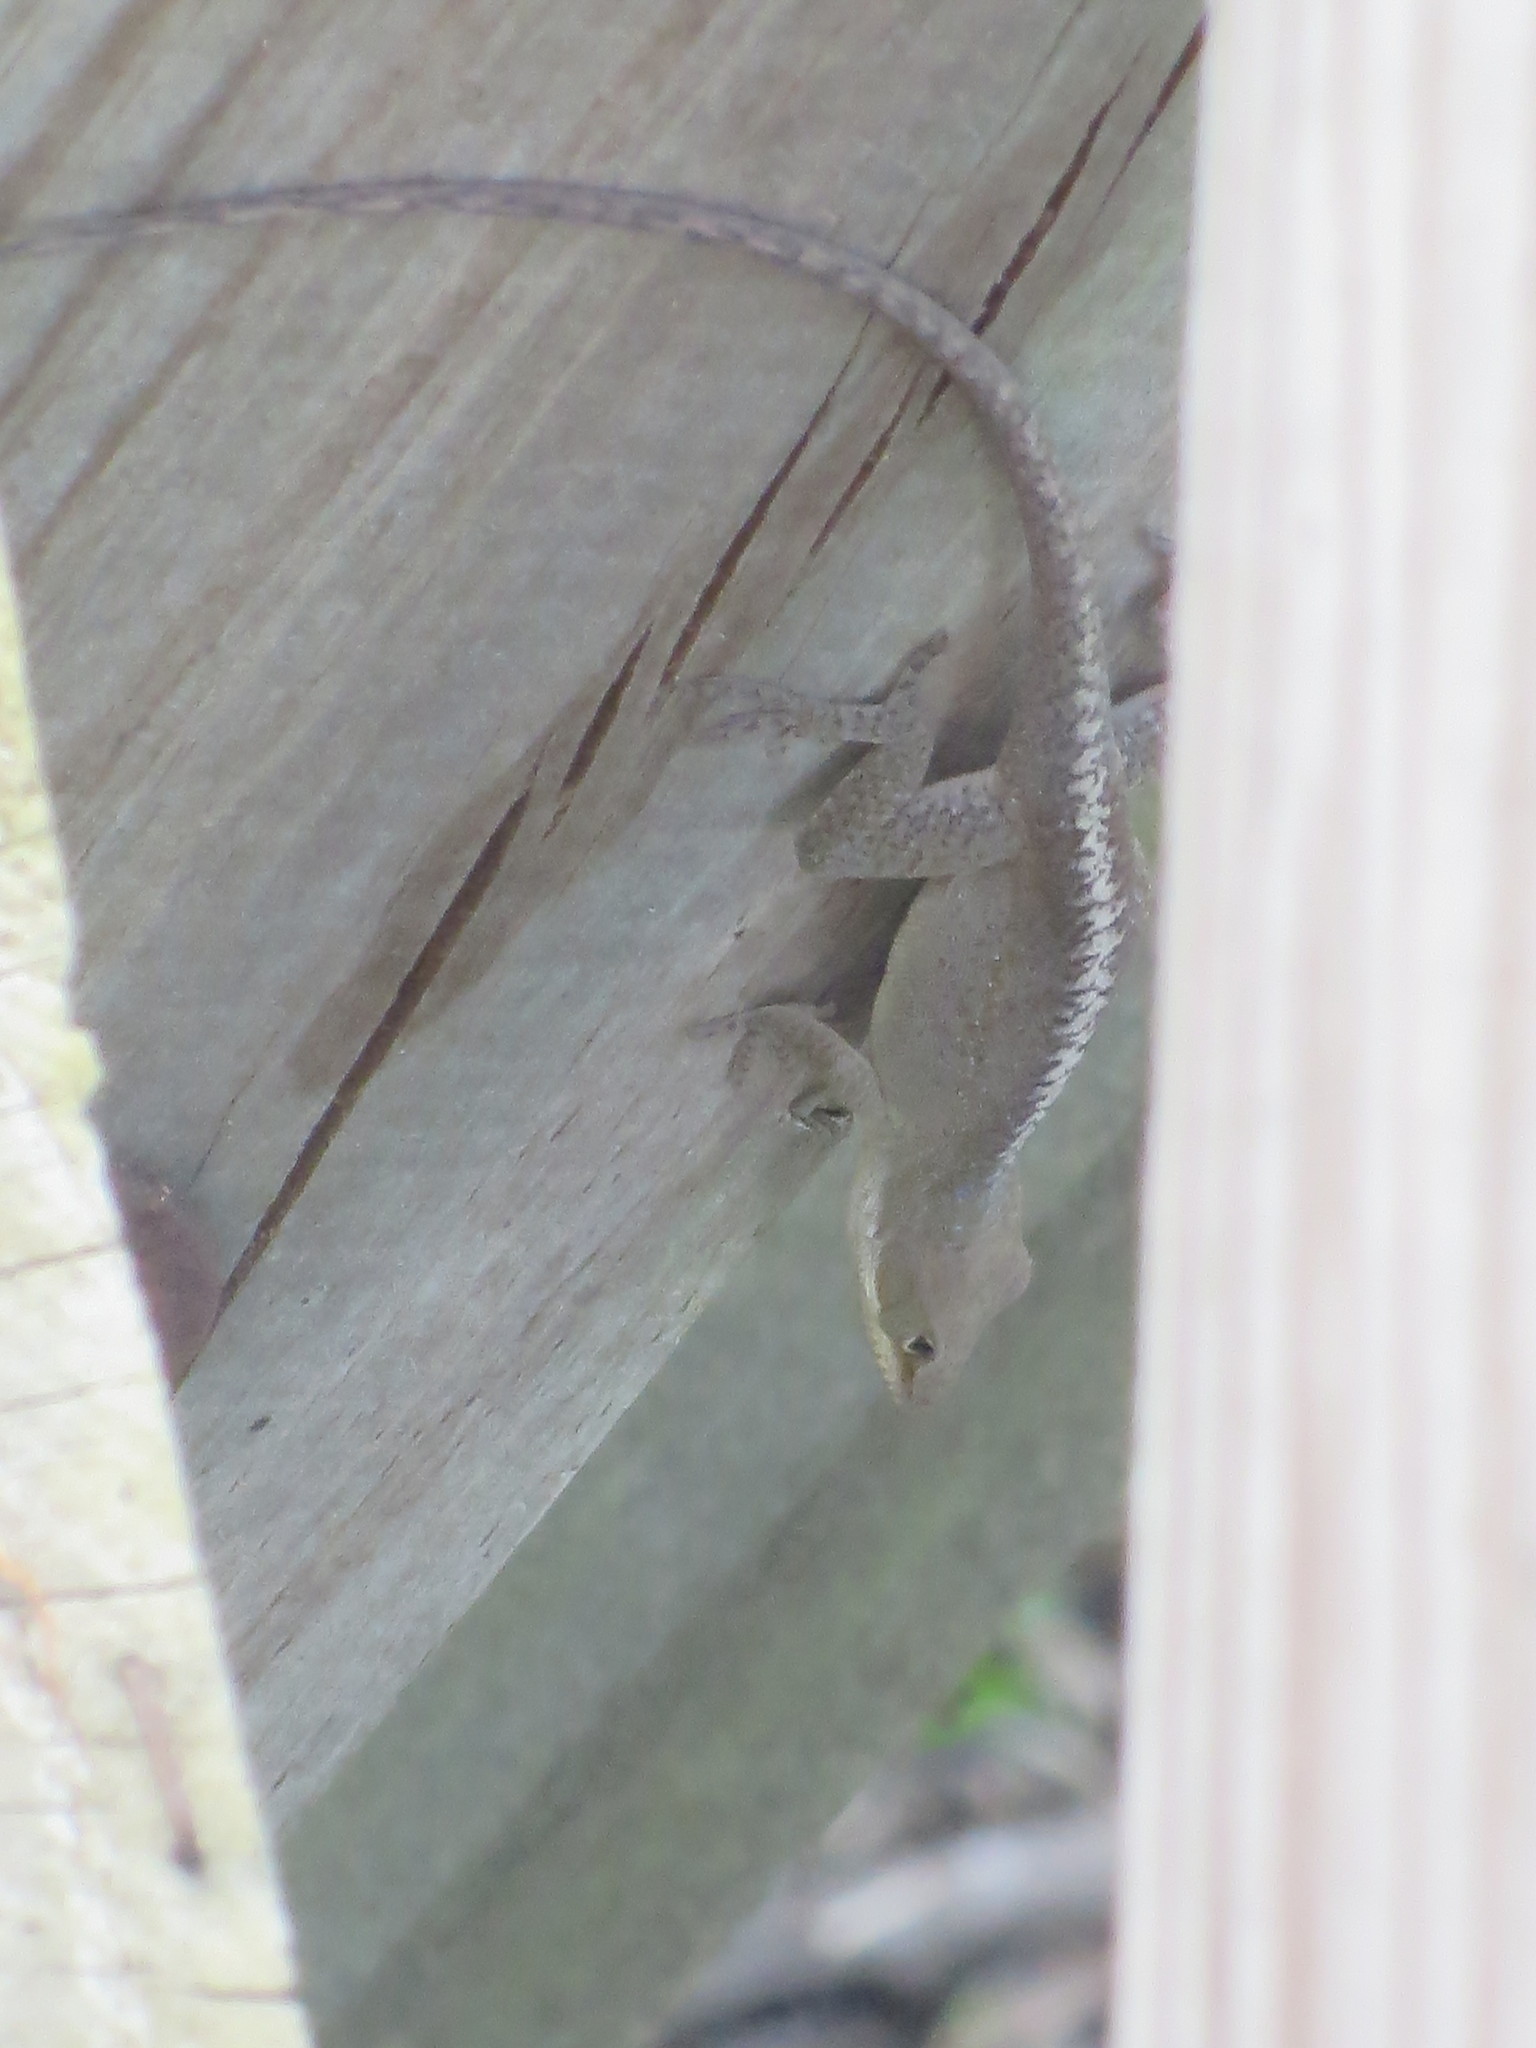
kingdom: Animalia
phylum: Chordata
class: Squamata
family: Dactyloidae
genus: Anolis
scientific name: Anolis carolinensis
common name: Green anole
